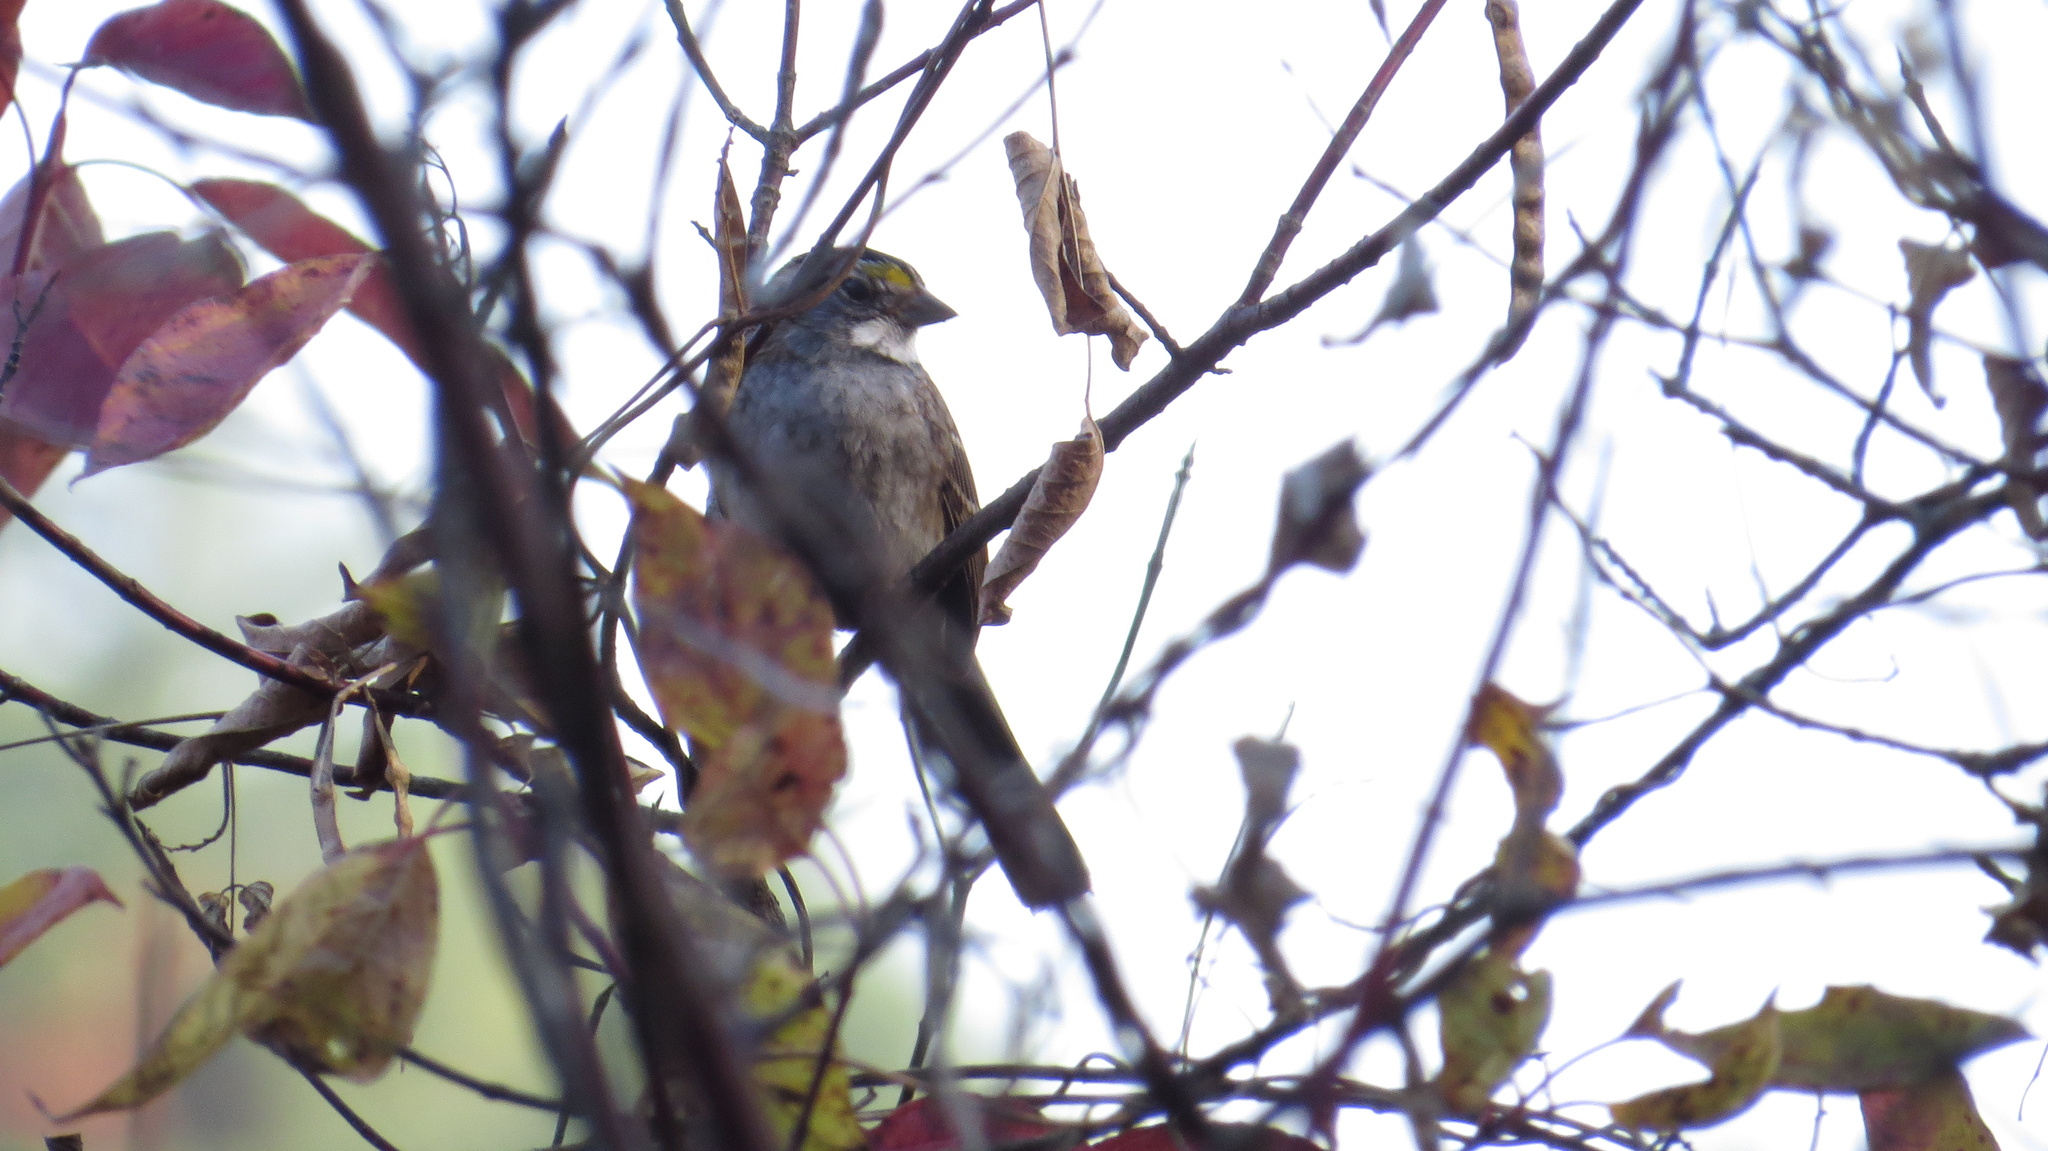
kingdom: Animalia
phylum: Chordata
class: Aves
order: Passeriformes
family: Passerellidae
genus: Zonotrichia
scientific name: Zonotrichia albicollis
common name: White-throated sparrow
